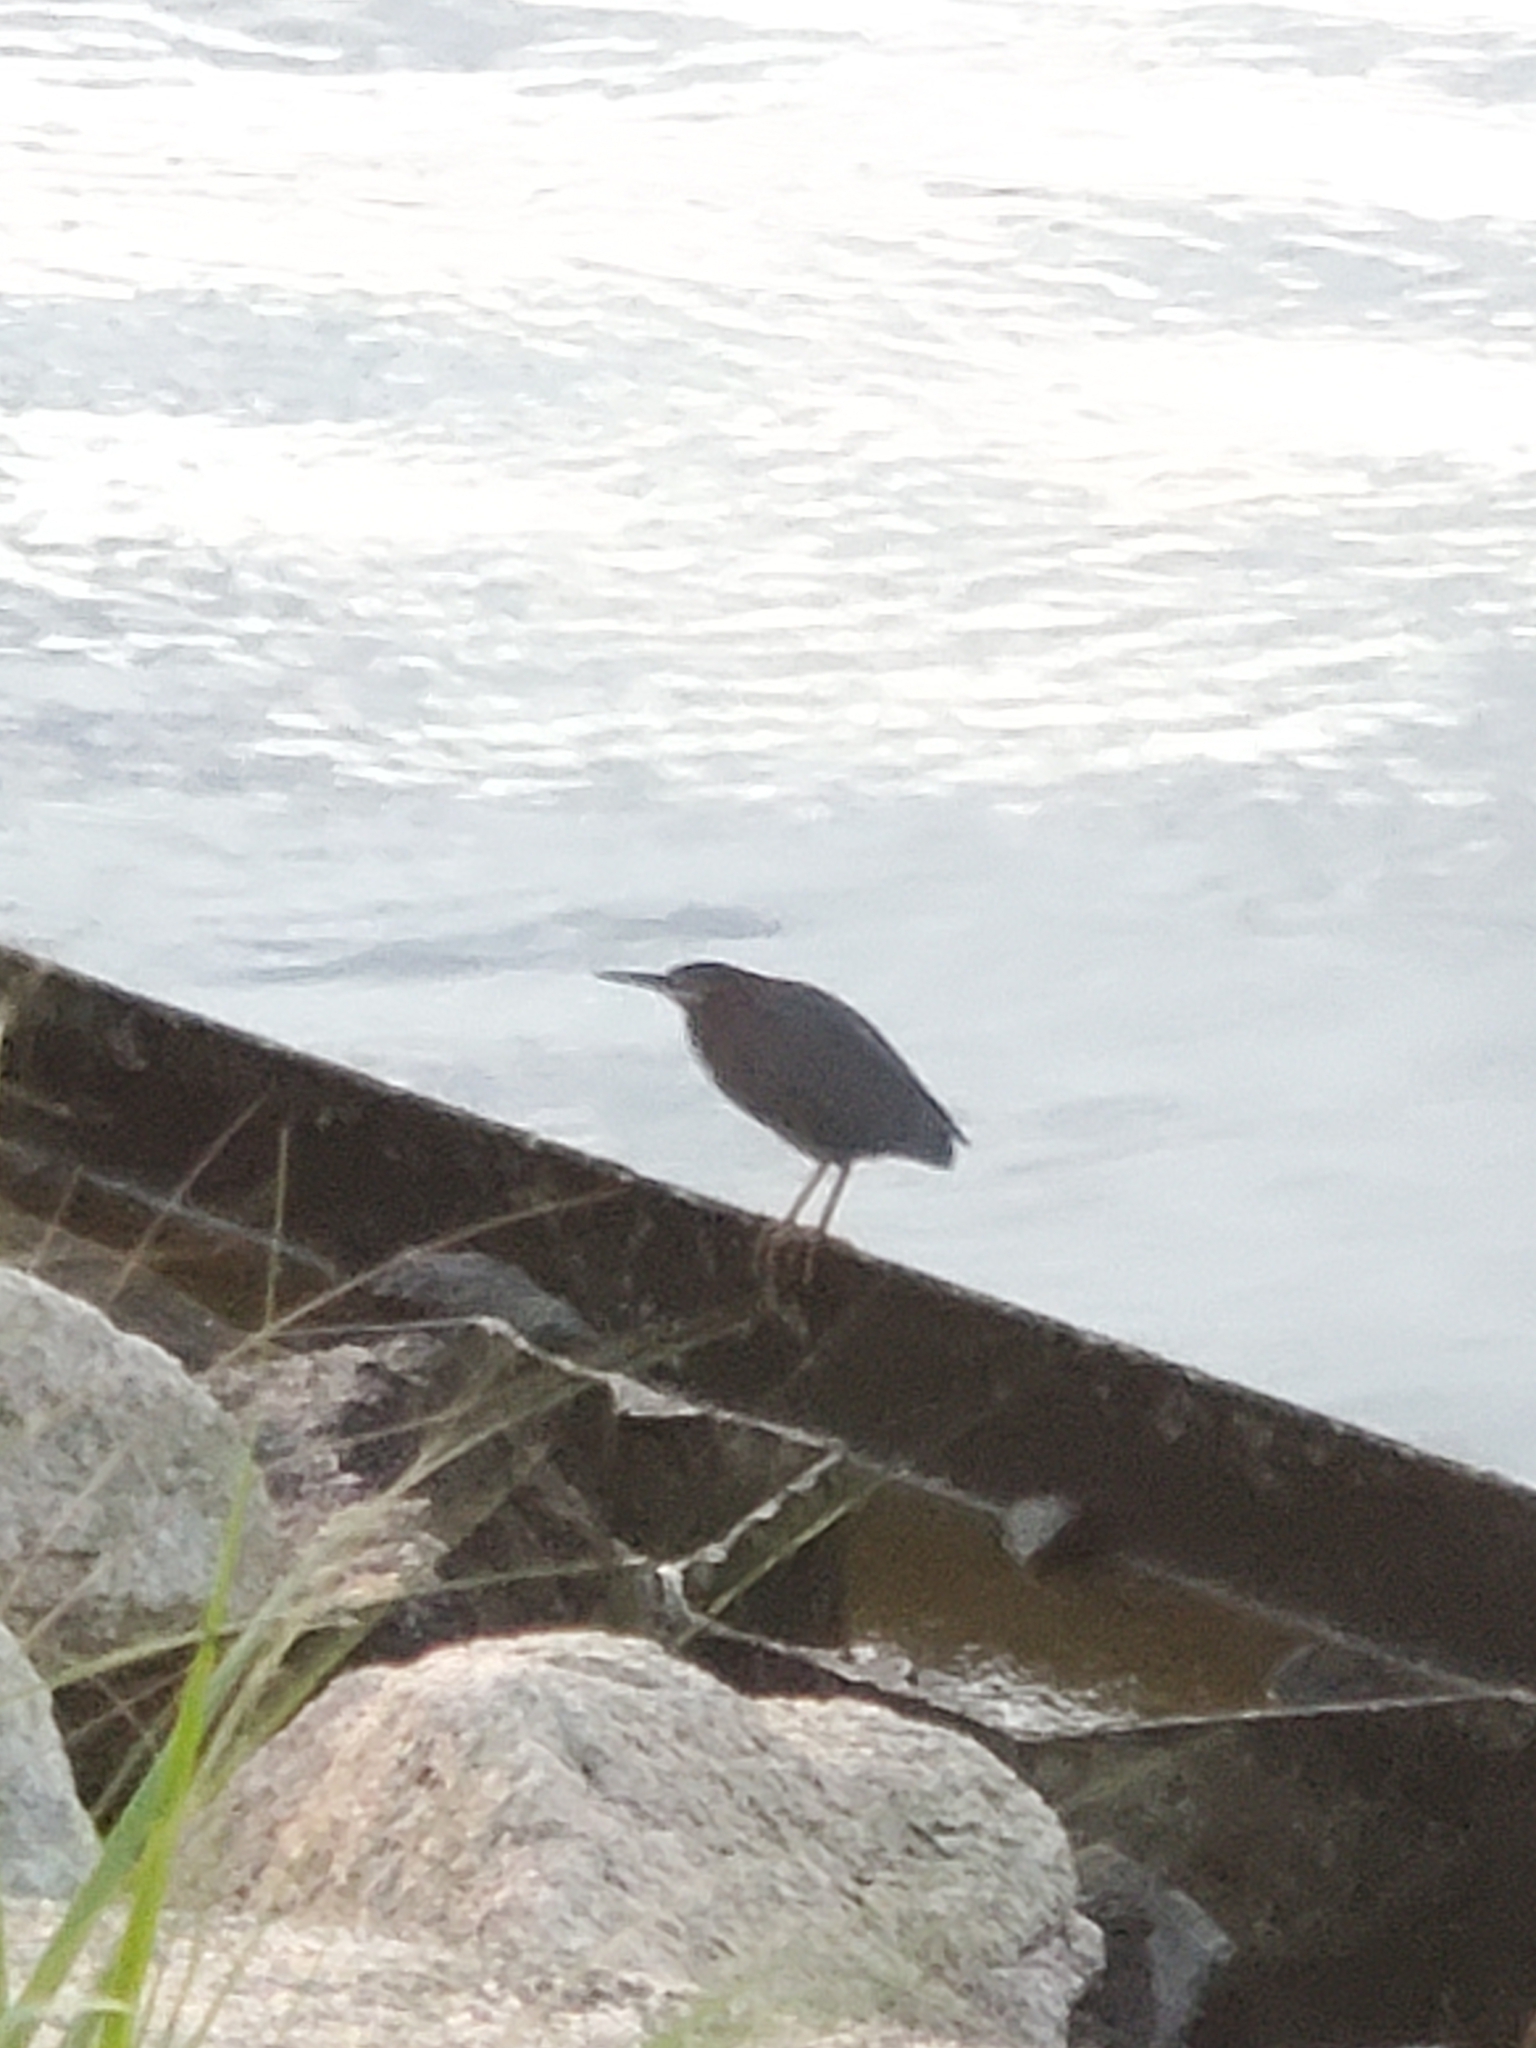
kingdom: Animalia
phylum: Chordata
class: Aves
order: Pelecaniformes
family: Ardeidae
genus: Butorides
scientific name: Butorides virescens
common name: Green heron
